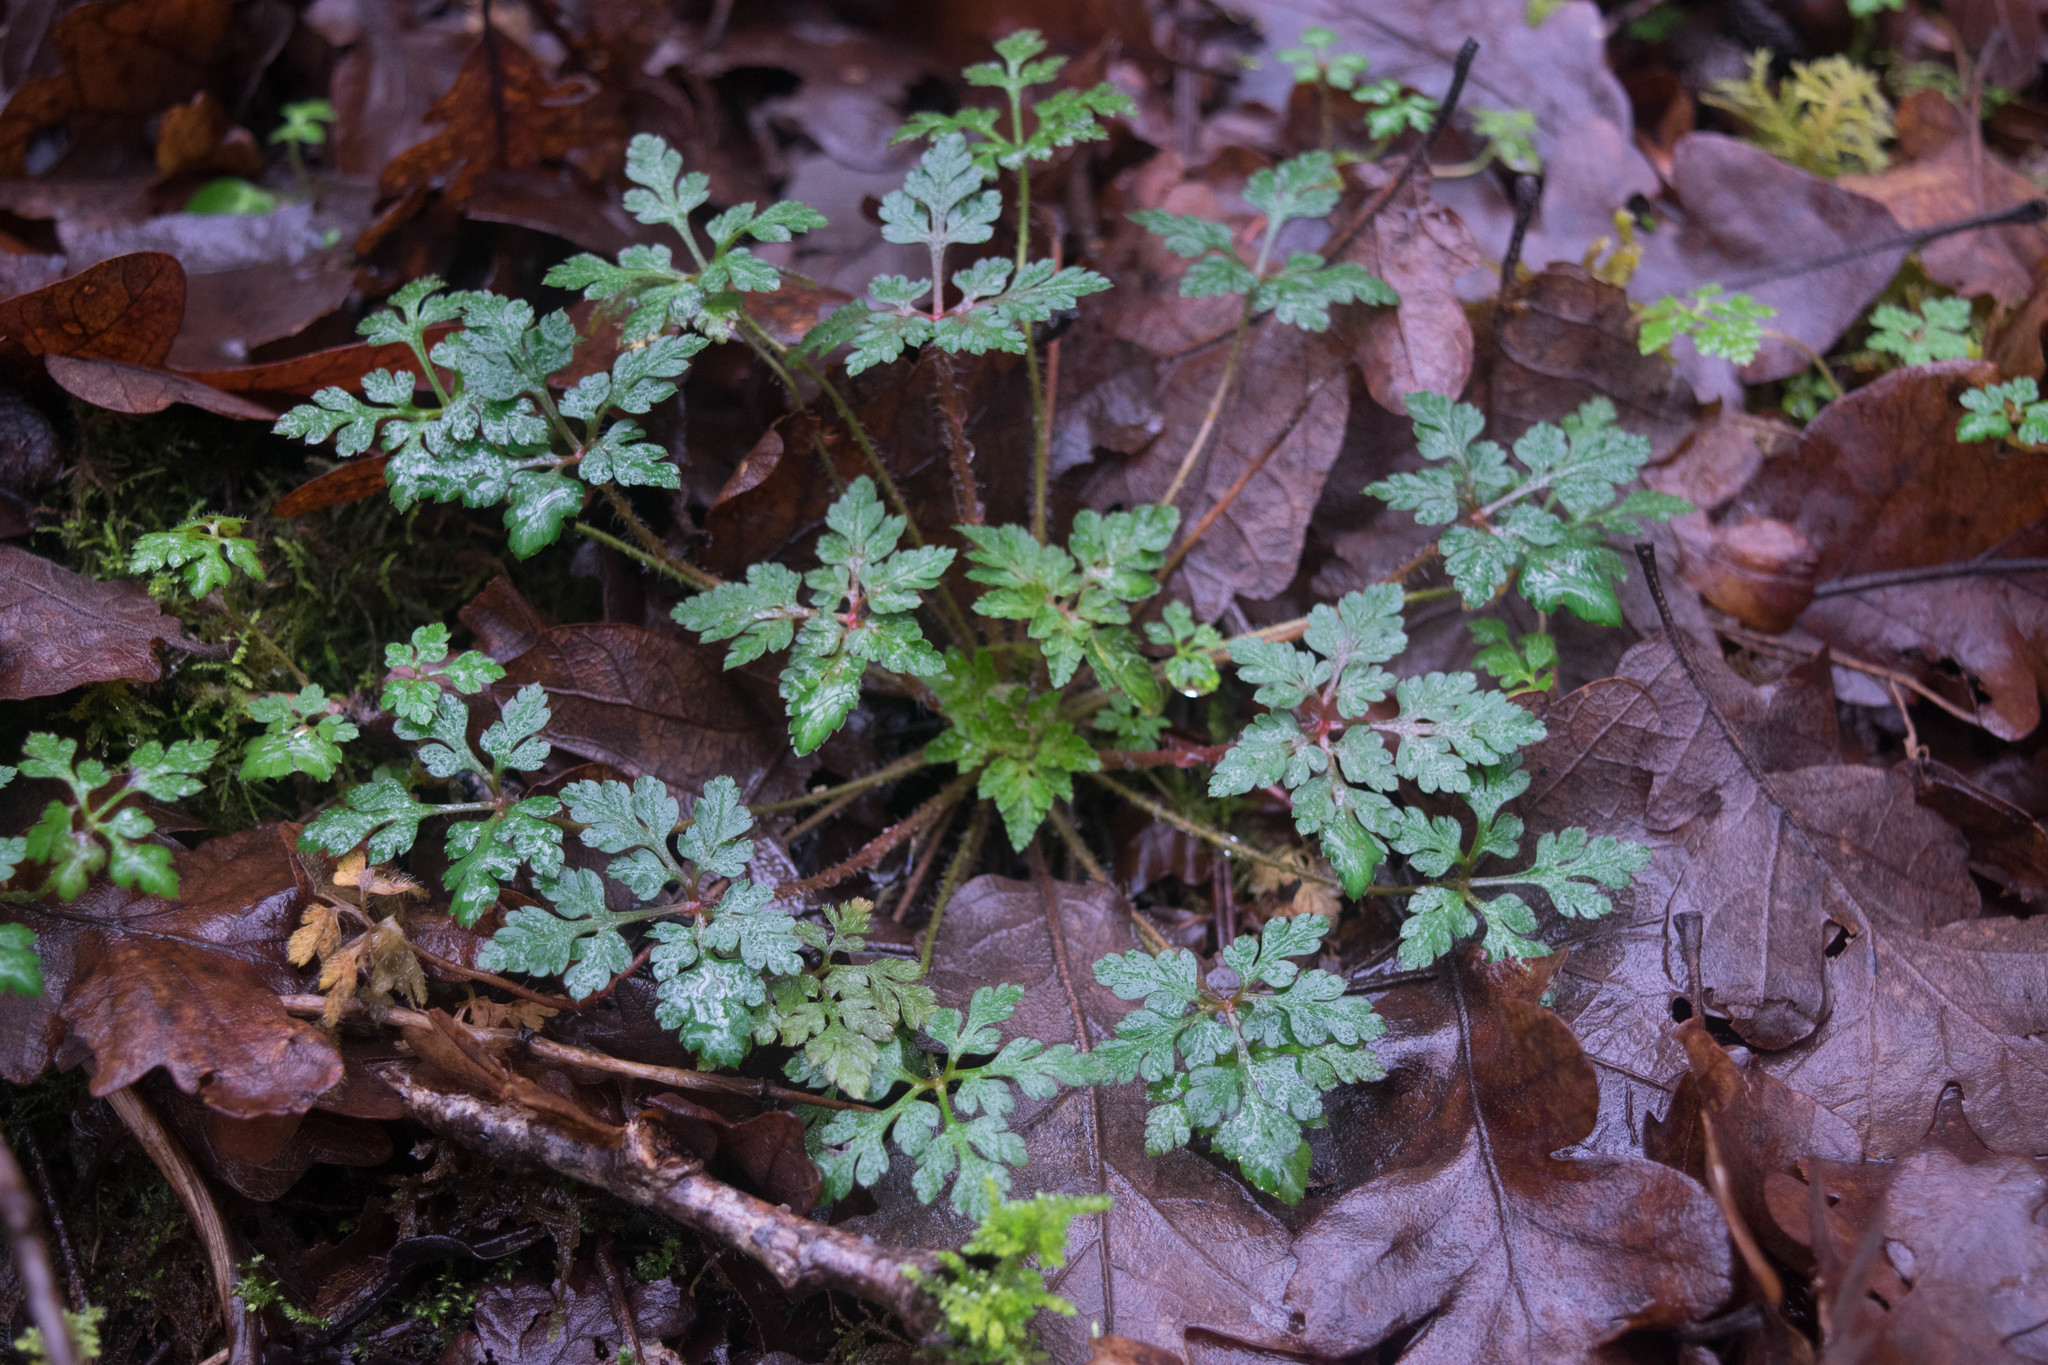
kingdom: Plantae
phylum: Tracheophyta
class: Magnoliopsida
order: Geraniales
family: Geraniaceae
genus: Geranium
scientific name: Geranium robertianum
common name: Herb-robert
